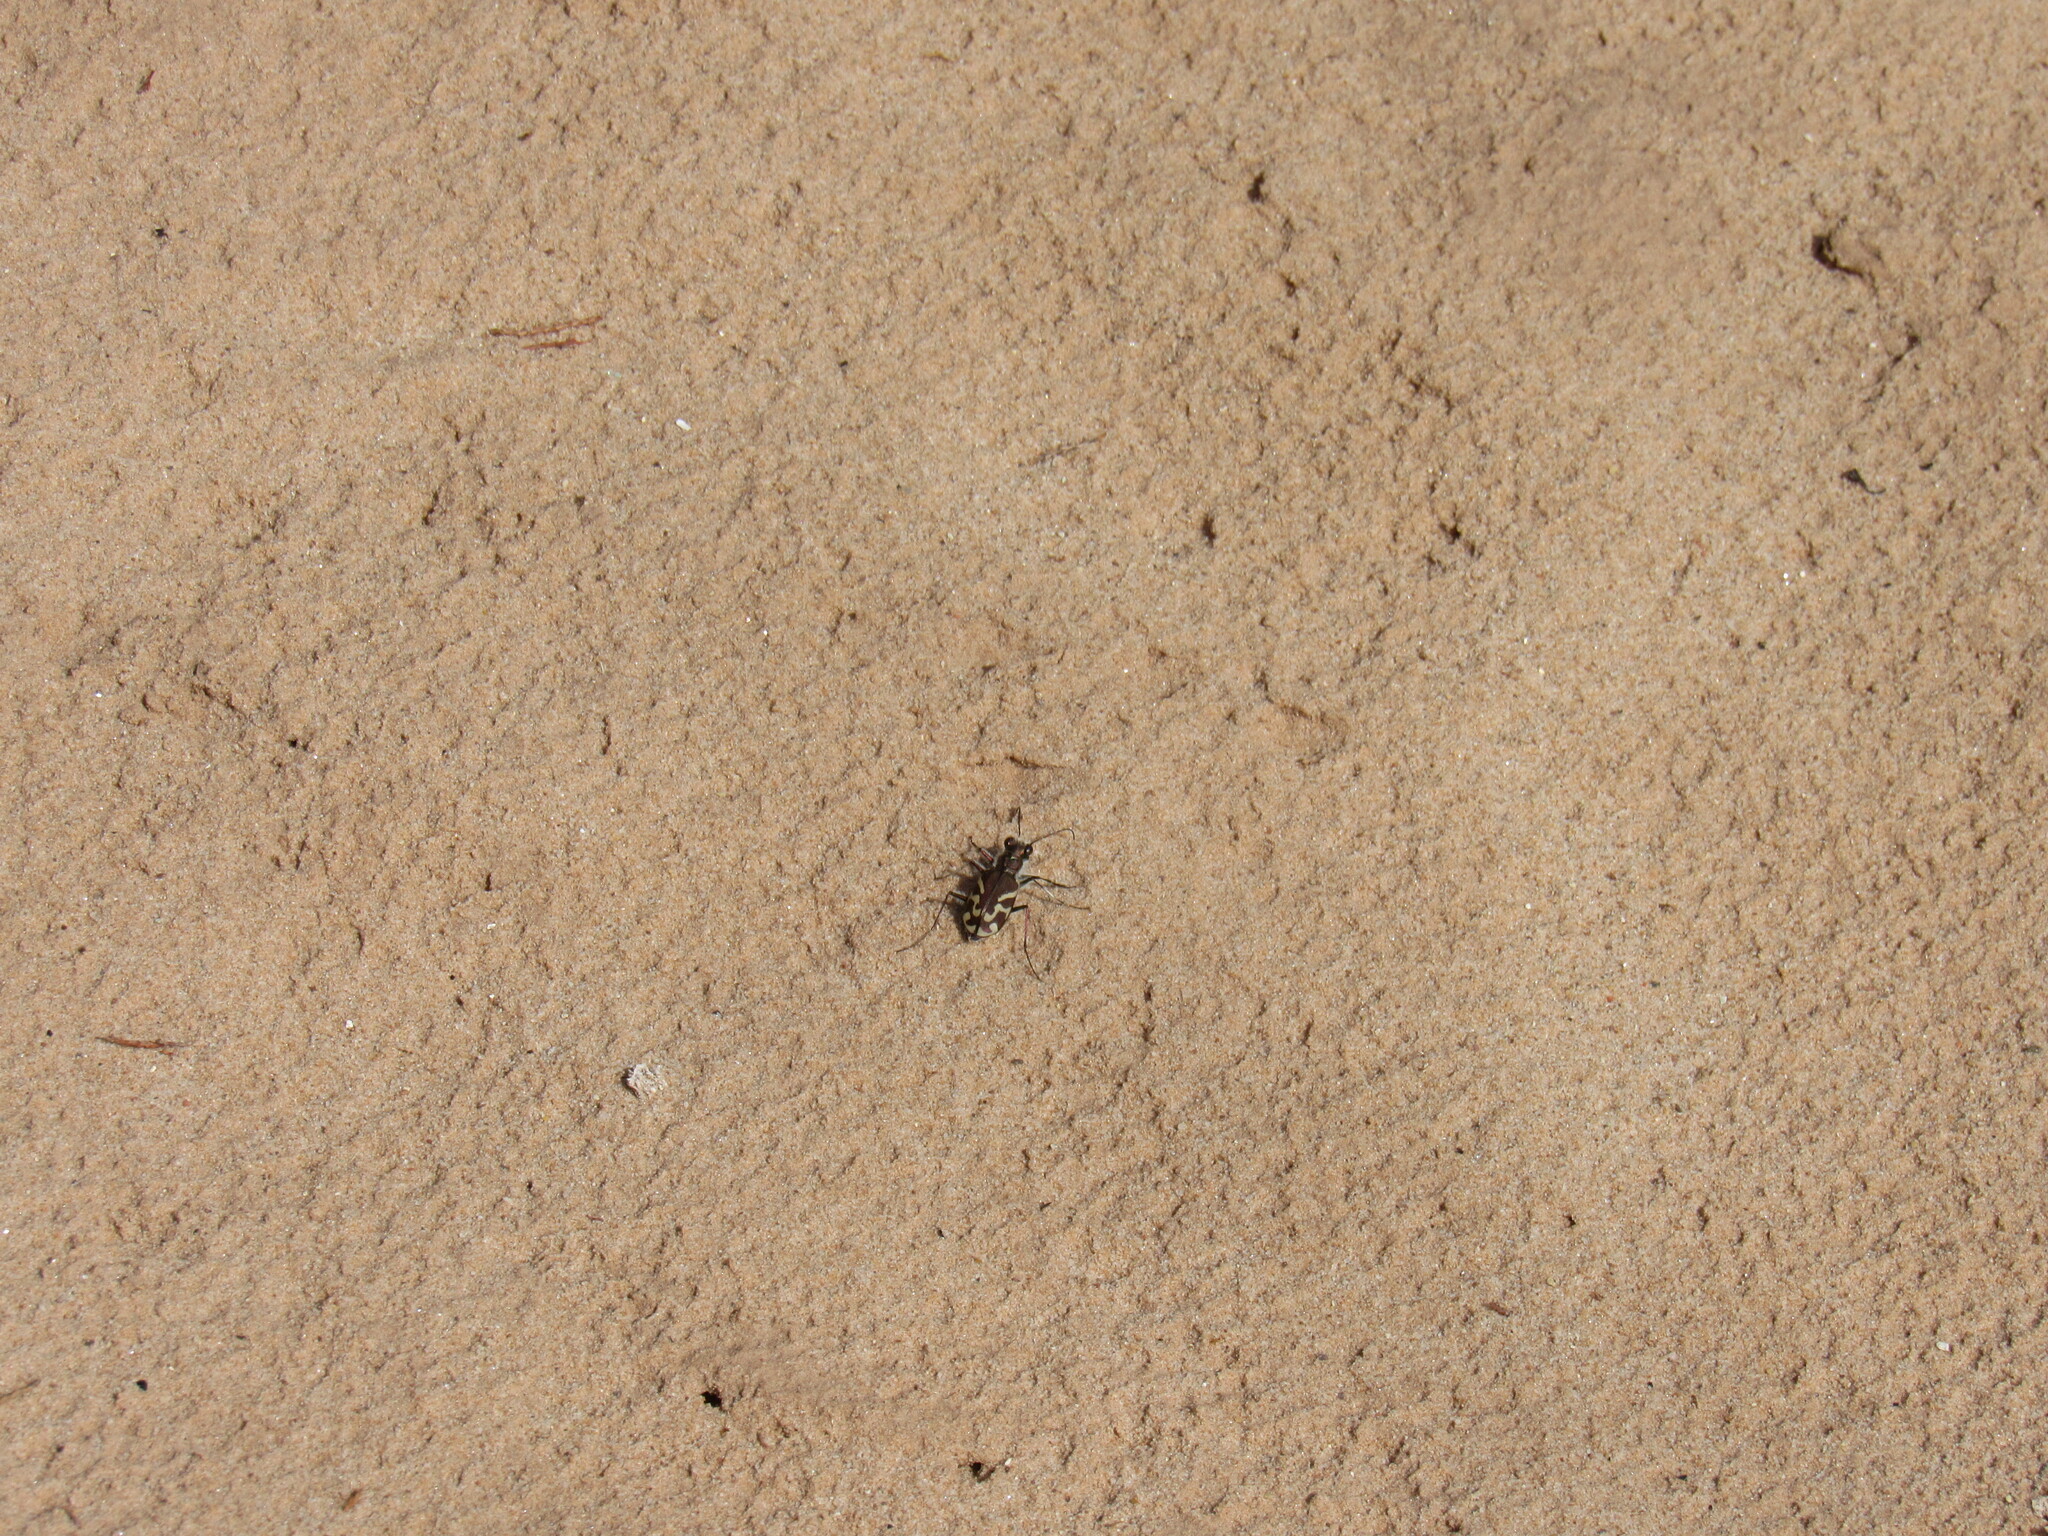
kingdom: Animalia
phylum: Arthropoda
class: Insecta
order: Coleoptera
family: Carabidae
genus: Cicindela
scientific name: Cicindela tranquebarica
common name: Oblique-lined tiger beetle
